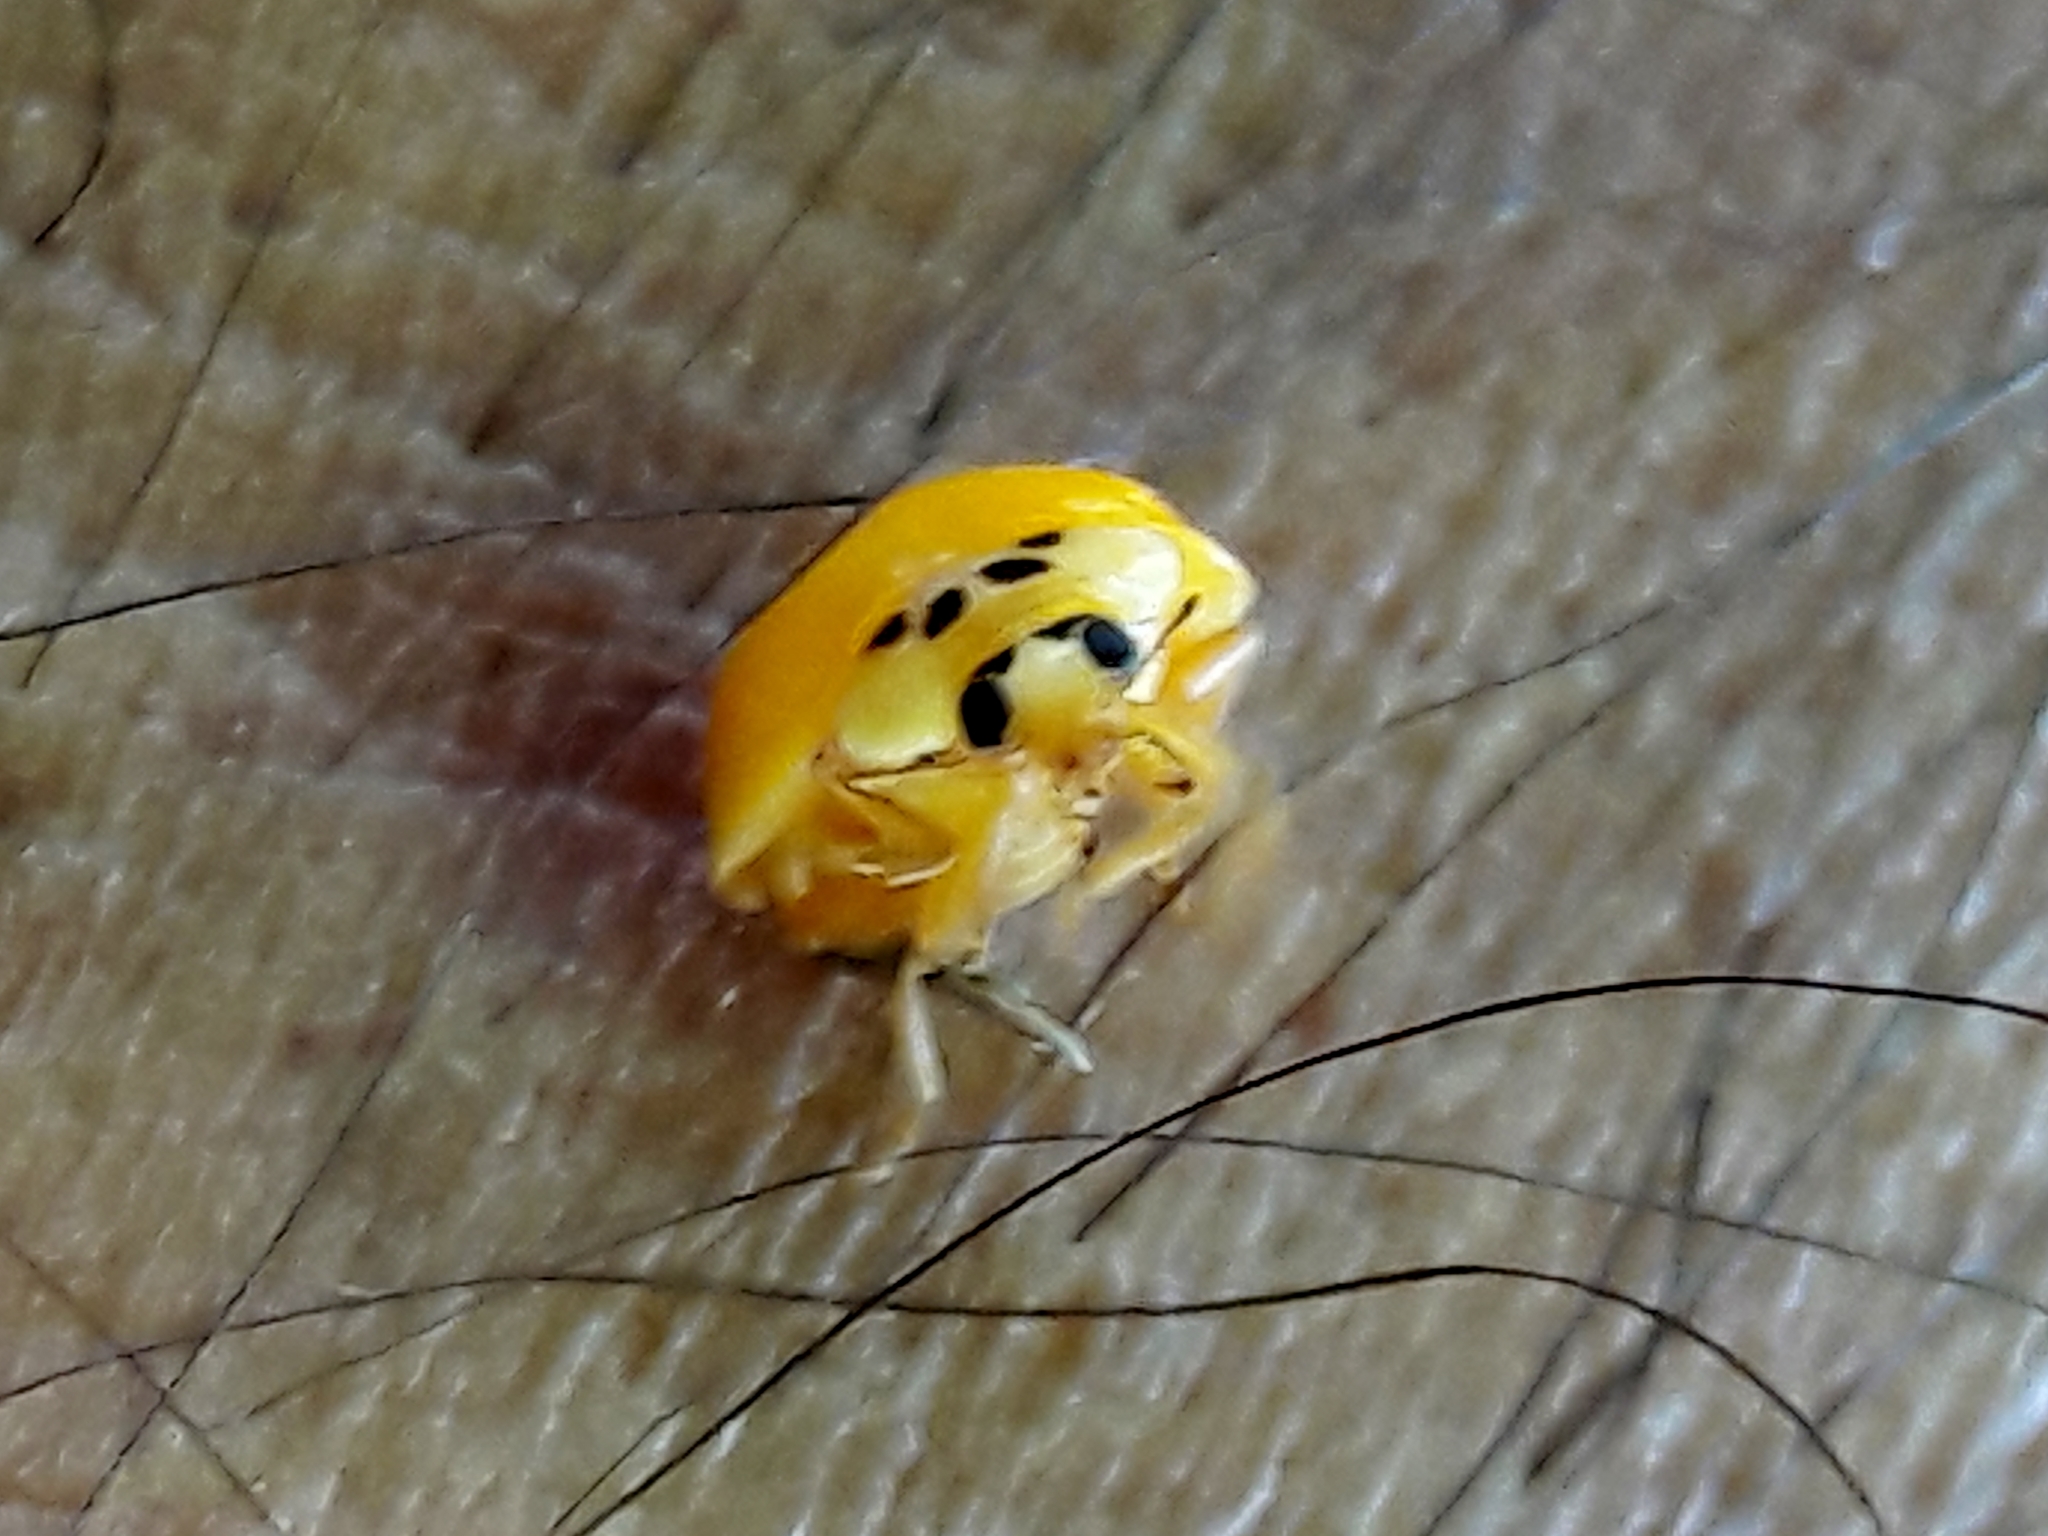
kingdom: Animalia
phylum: Arthropoda
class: Insecta
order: Coleoptera
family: Coccinellidae
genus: Harmonia
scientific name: Harmonia axyridis
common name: Harlequin ladybird
